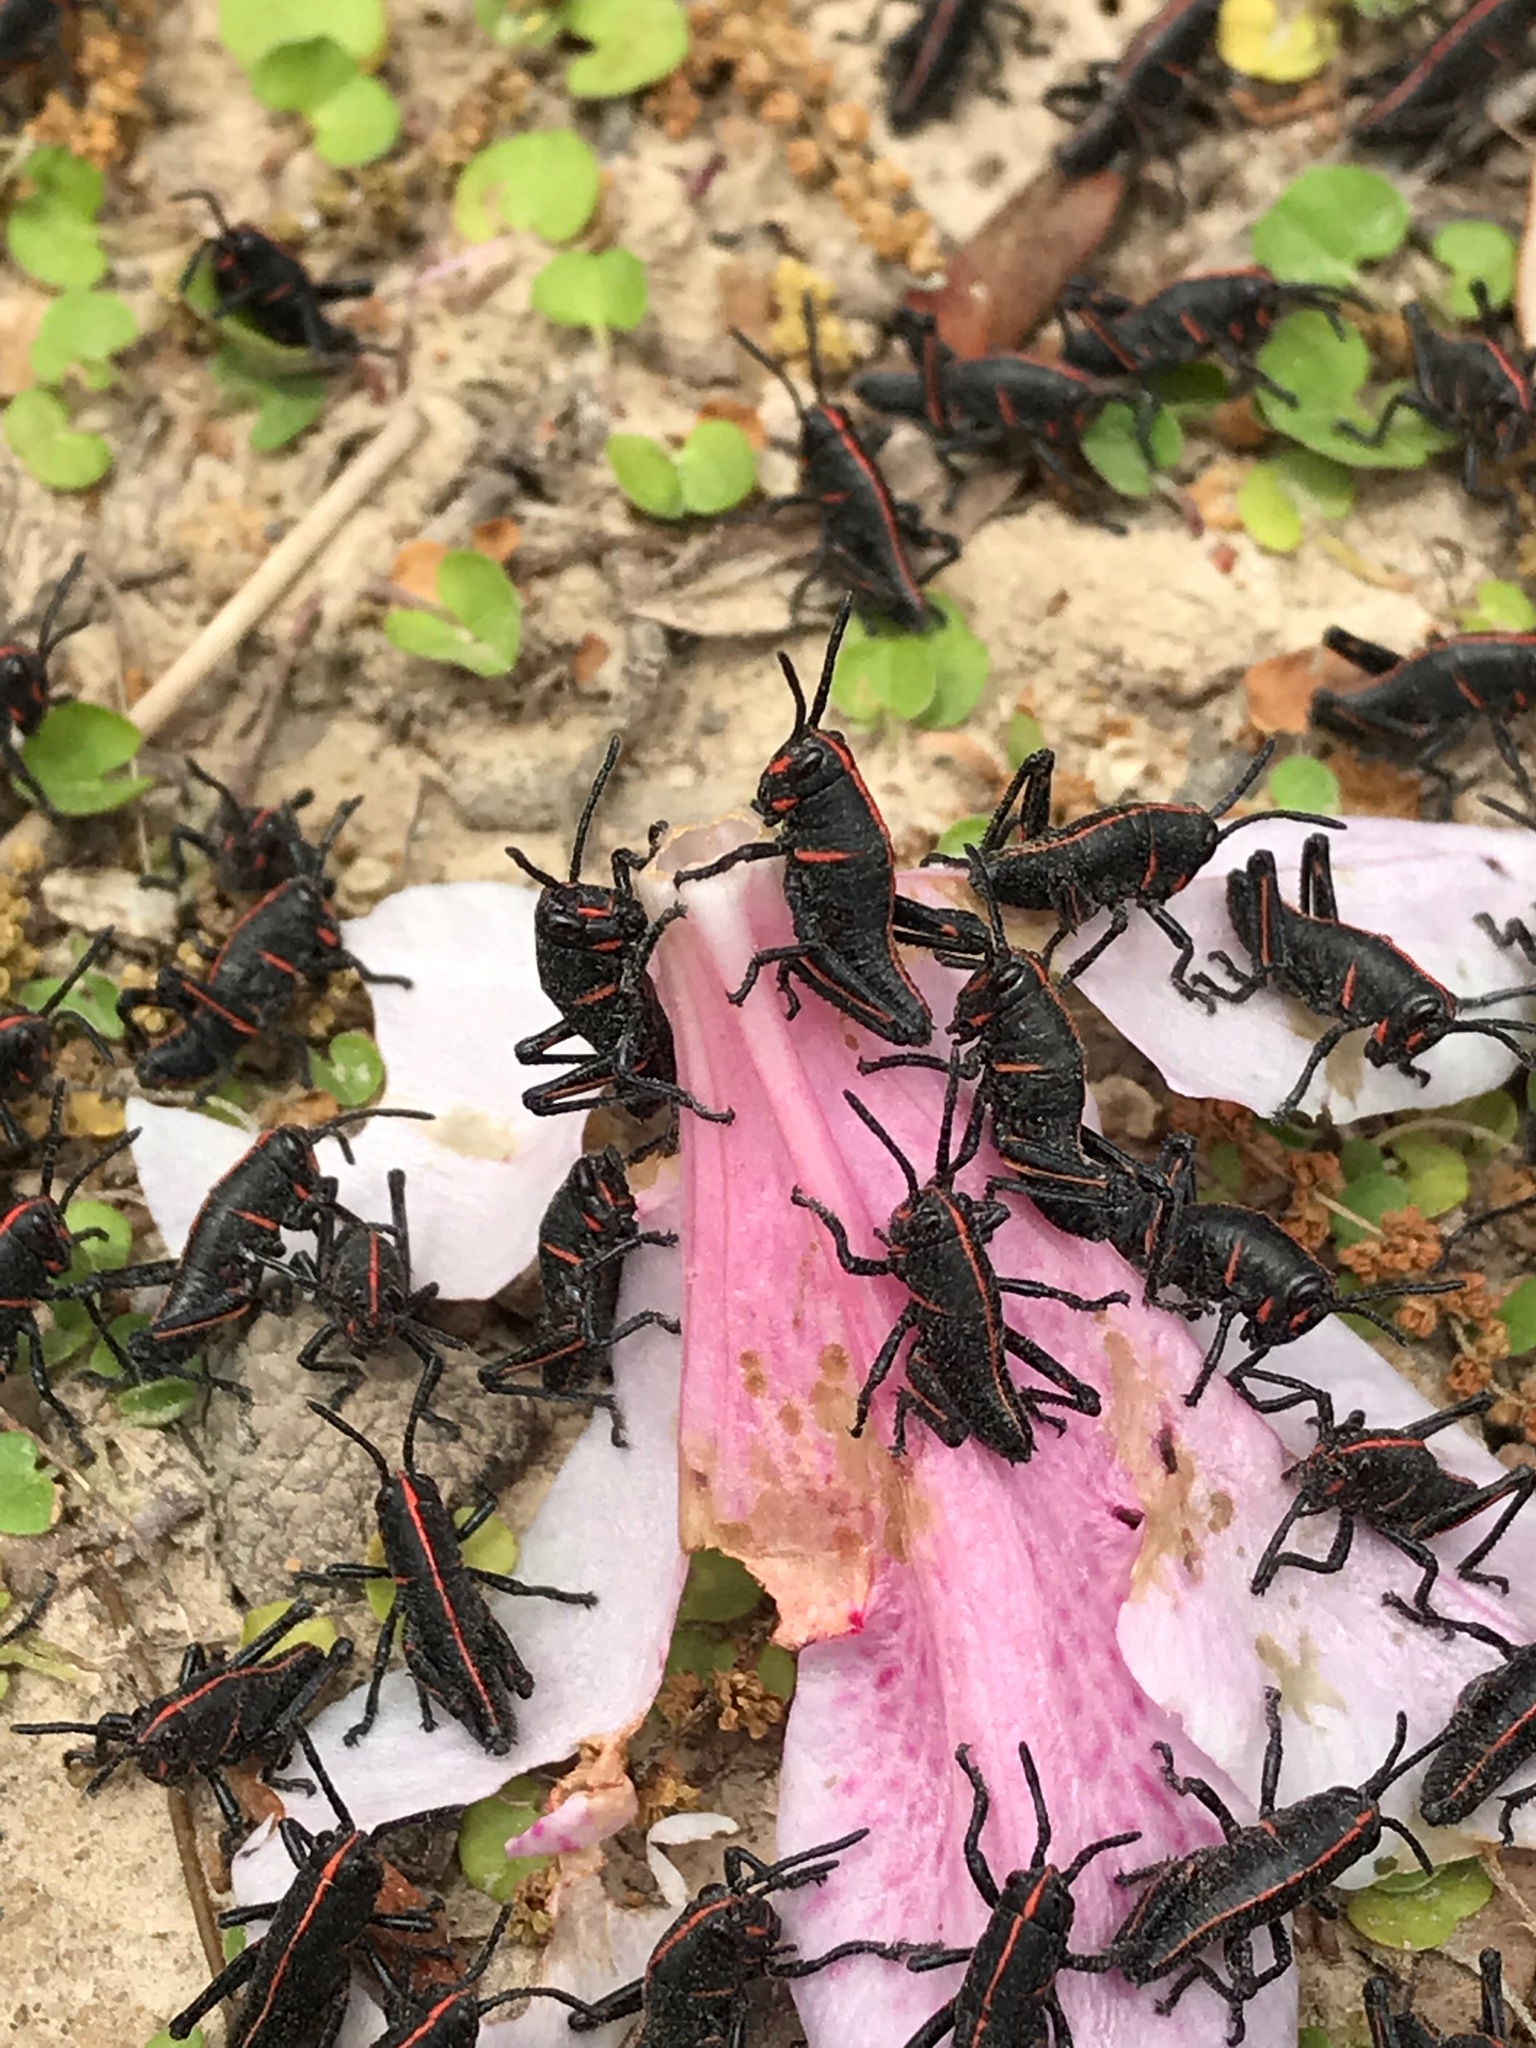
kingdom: Animalia
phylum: Arthropoda
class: Insecta
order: Orthoptera
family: Romaleidae
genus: Romalea
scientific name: Romalea microptera
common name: Eastern lubber grasshopper
